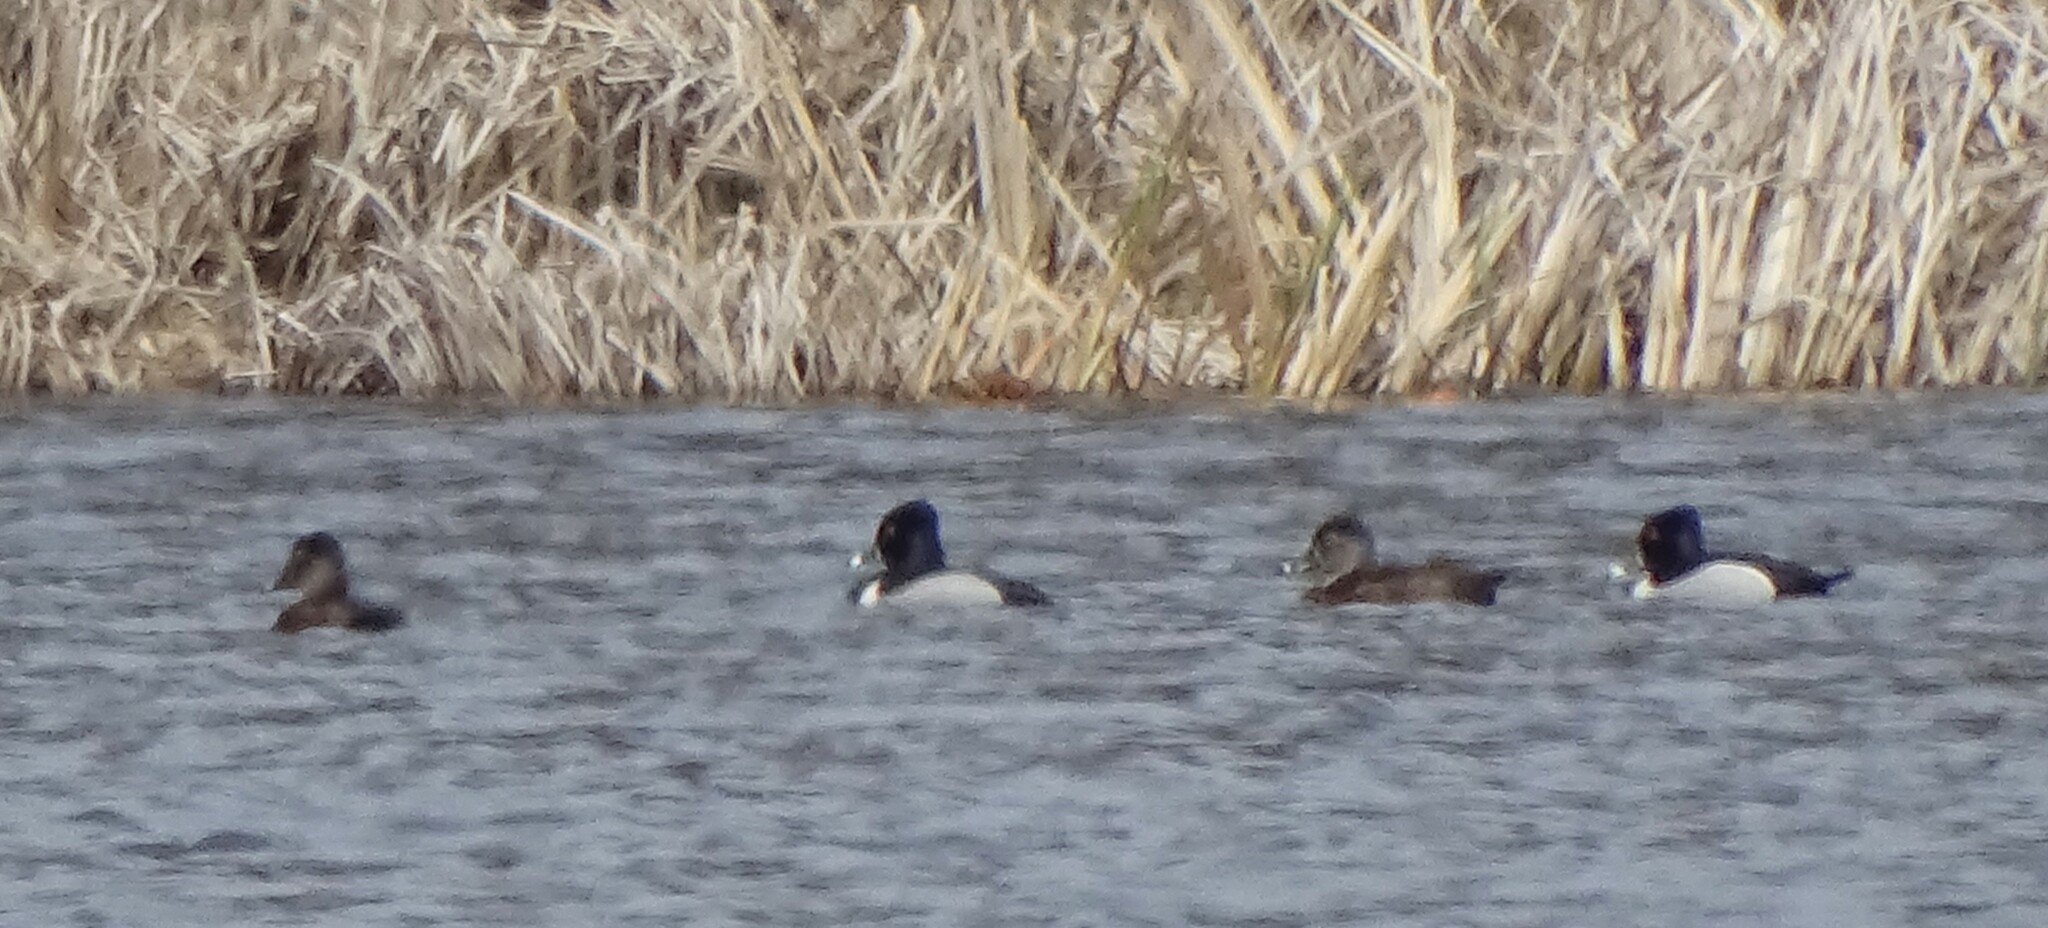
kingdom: Animalia
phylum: Chordata
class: Aves
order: Anseriformes
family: Anatidae
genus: Aythya
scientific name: Aythya collaris
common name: Ring-necked duck
